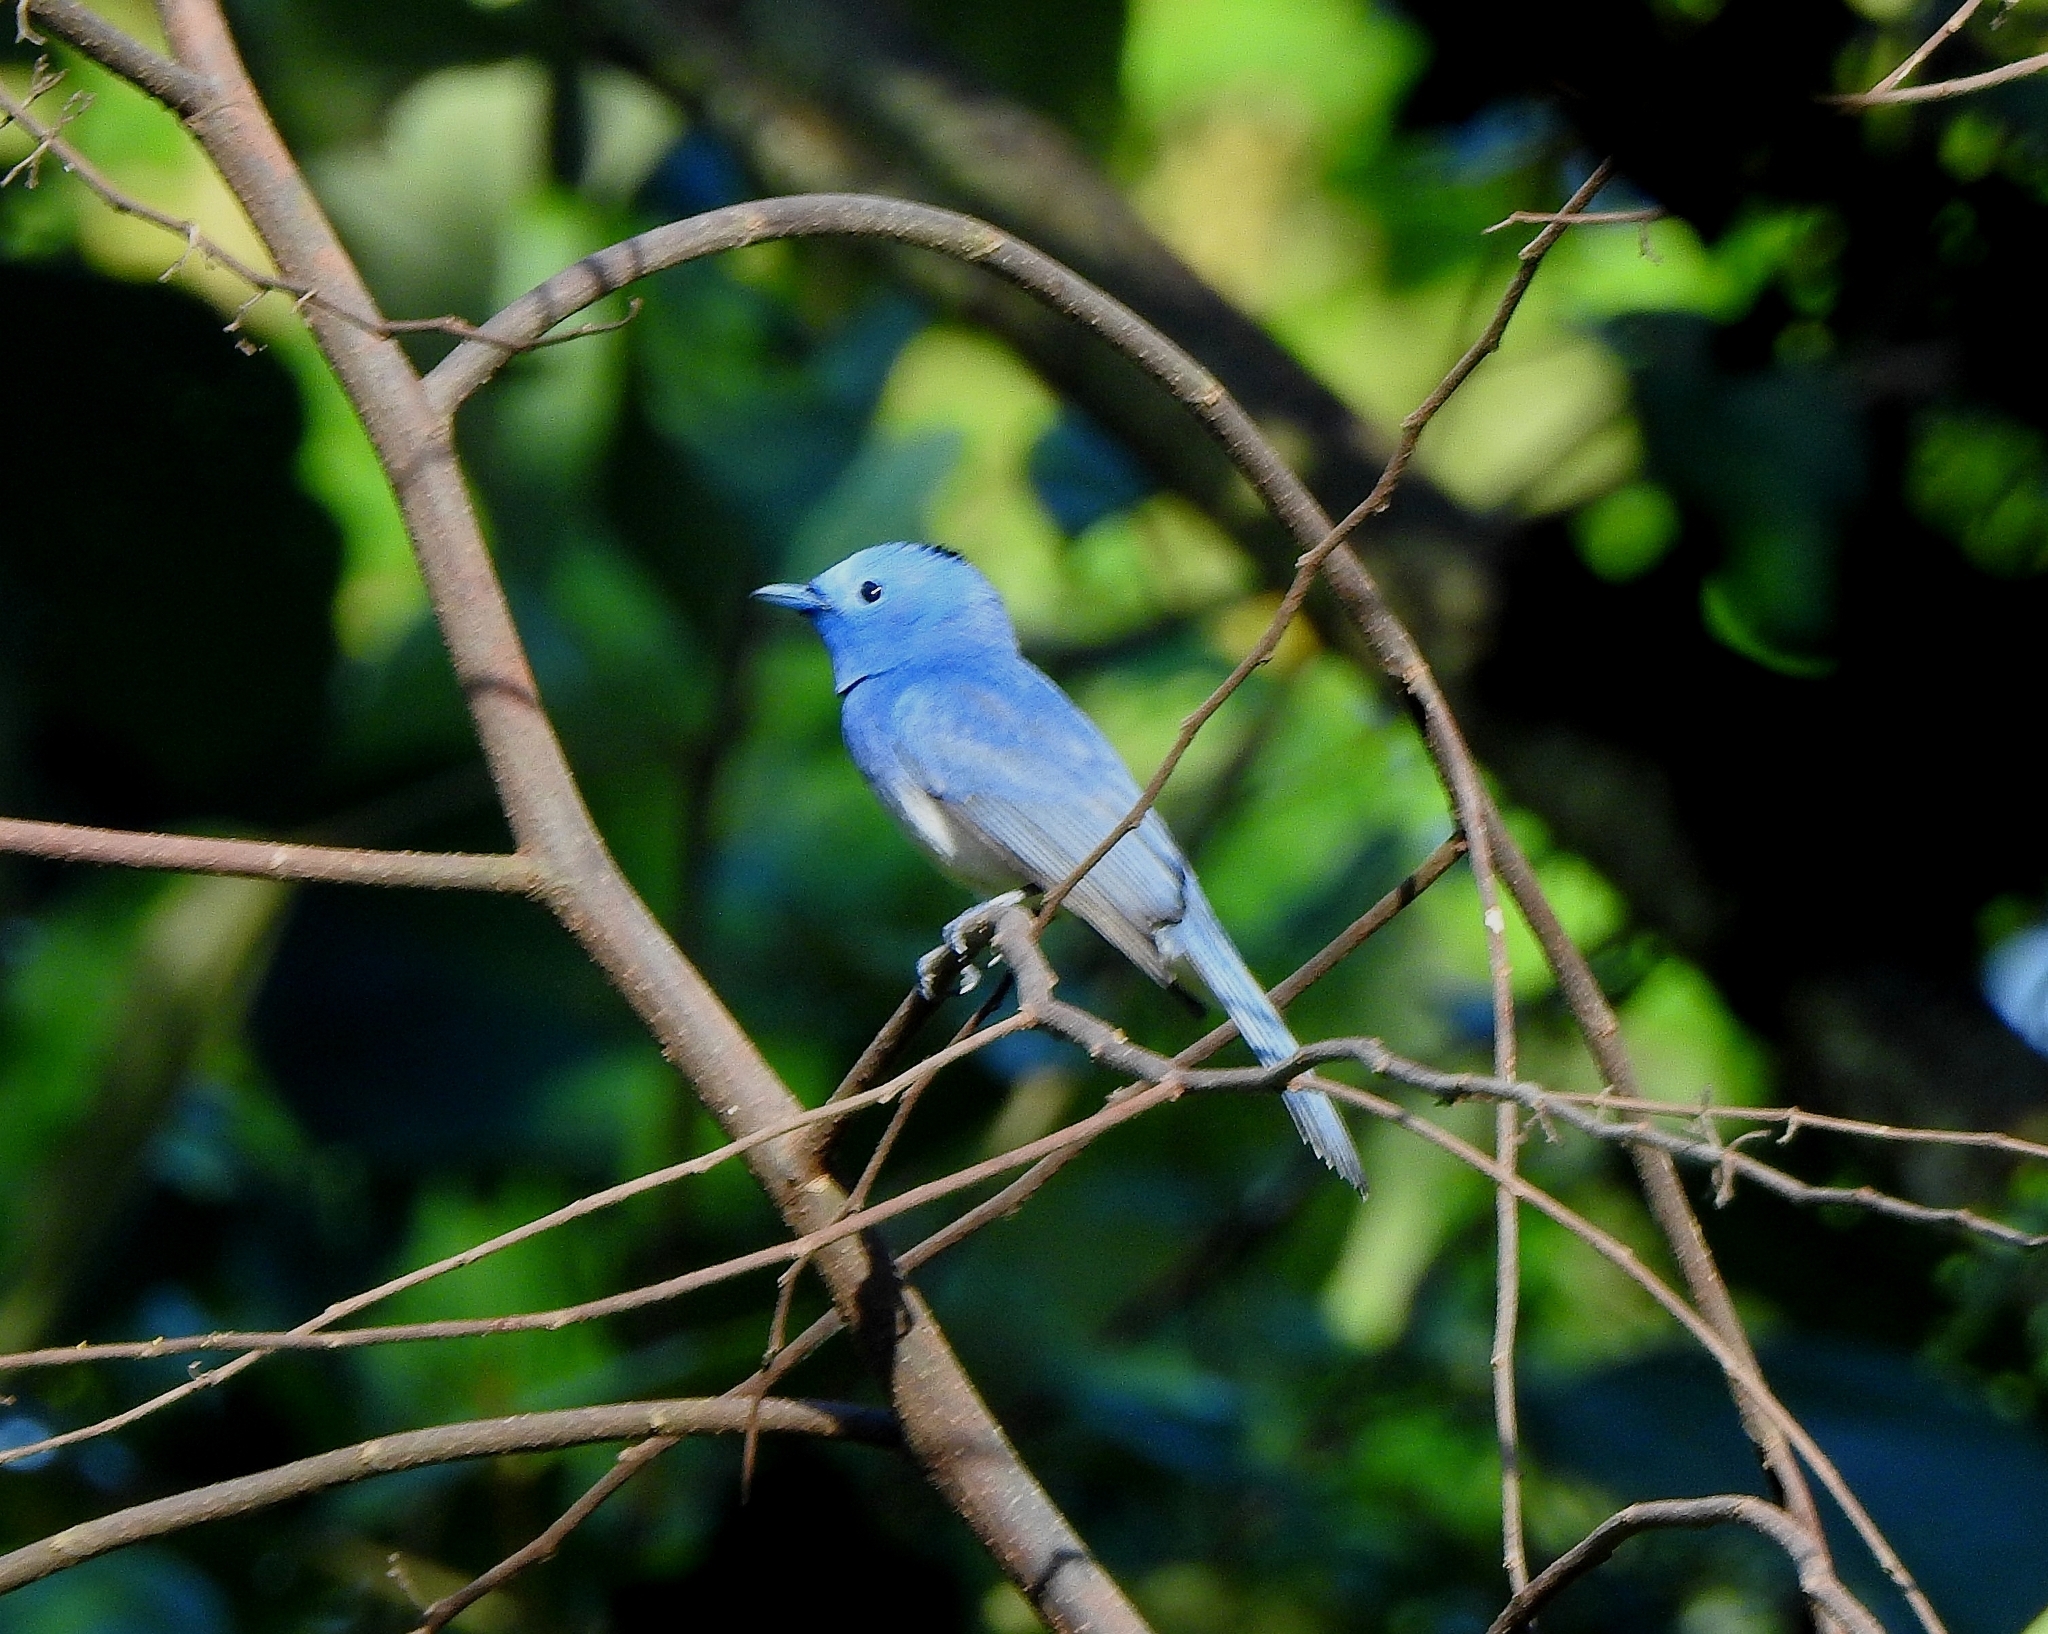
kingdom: Animalia
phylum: Chordata
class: Aves
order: Passeriformes
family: Monarchidae
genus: Hypothymis
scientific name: Hypothymis azurea
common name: Black-naped monarch
